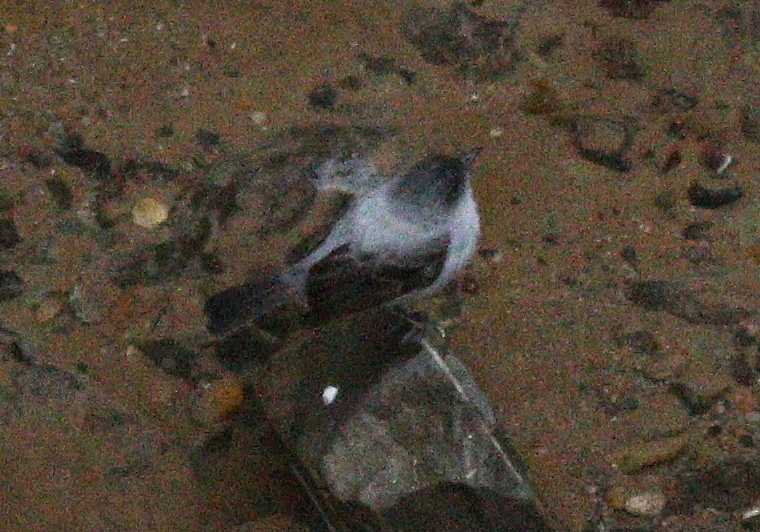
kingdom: Animalia
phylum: Chordata
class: Aves
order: Passeriformes
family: Tyrannidae
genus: Serpophaga
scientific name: Serpophaga cinerea
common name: Torrent tyrannulet
